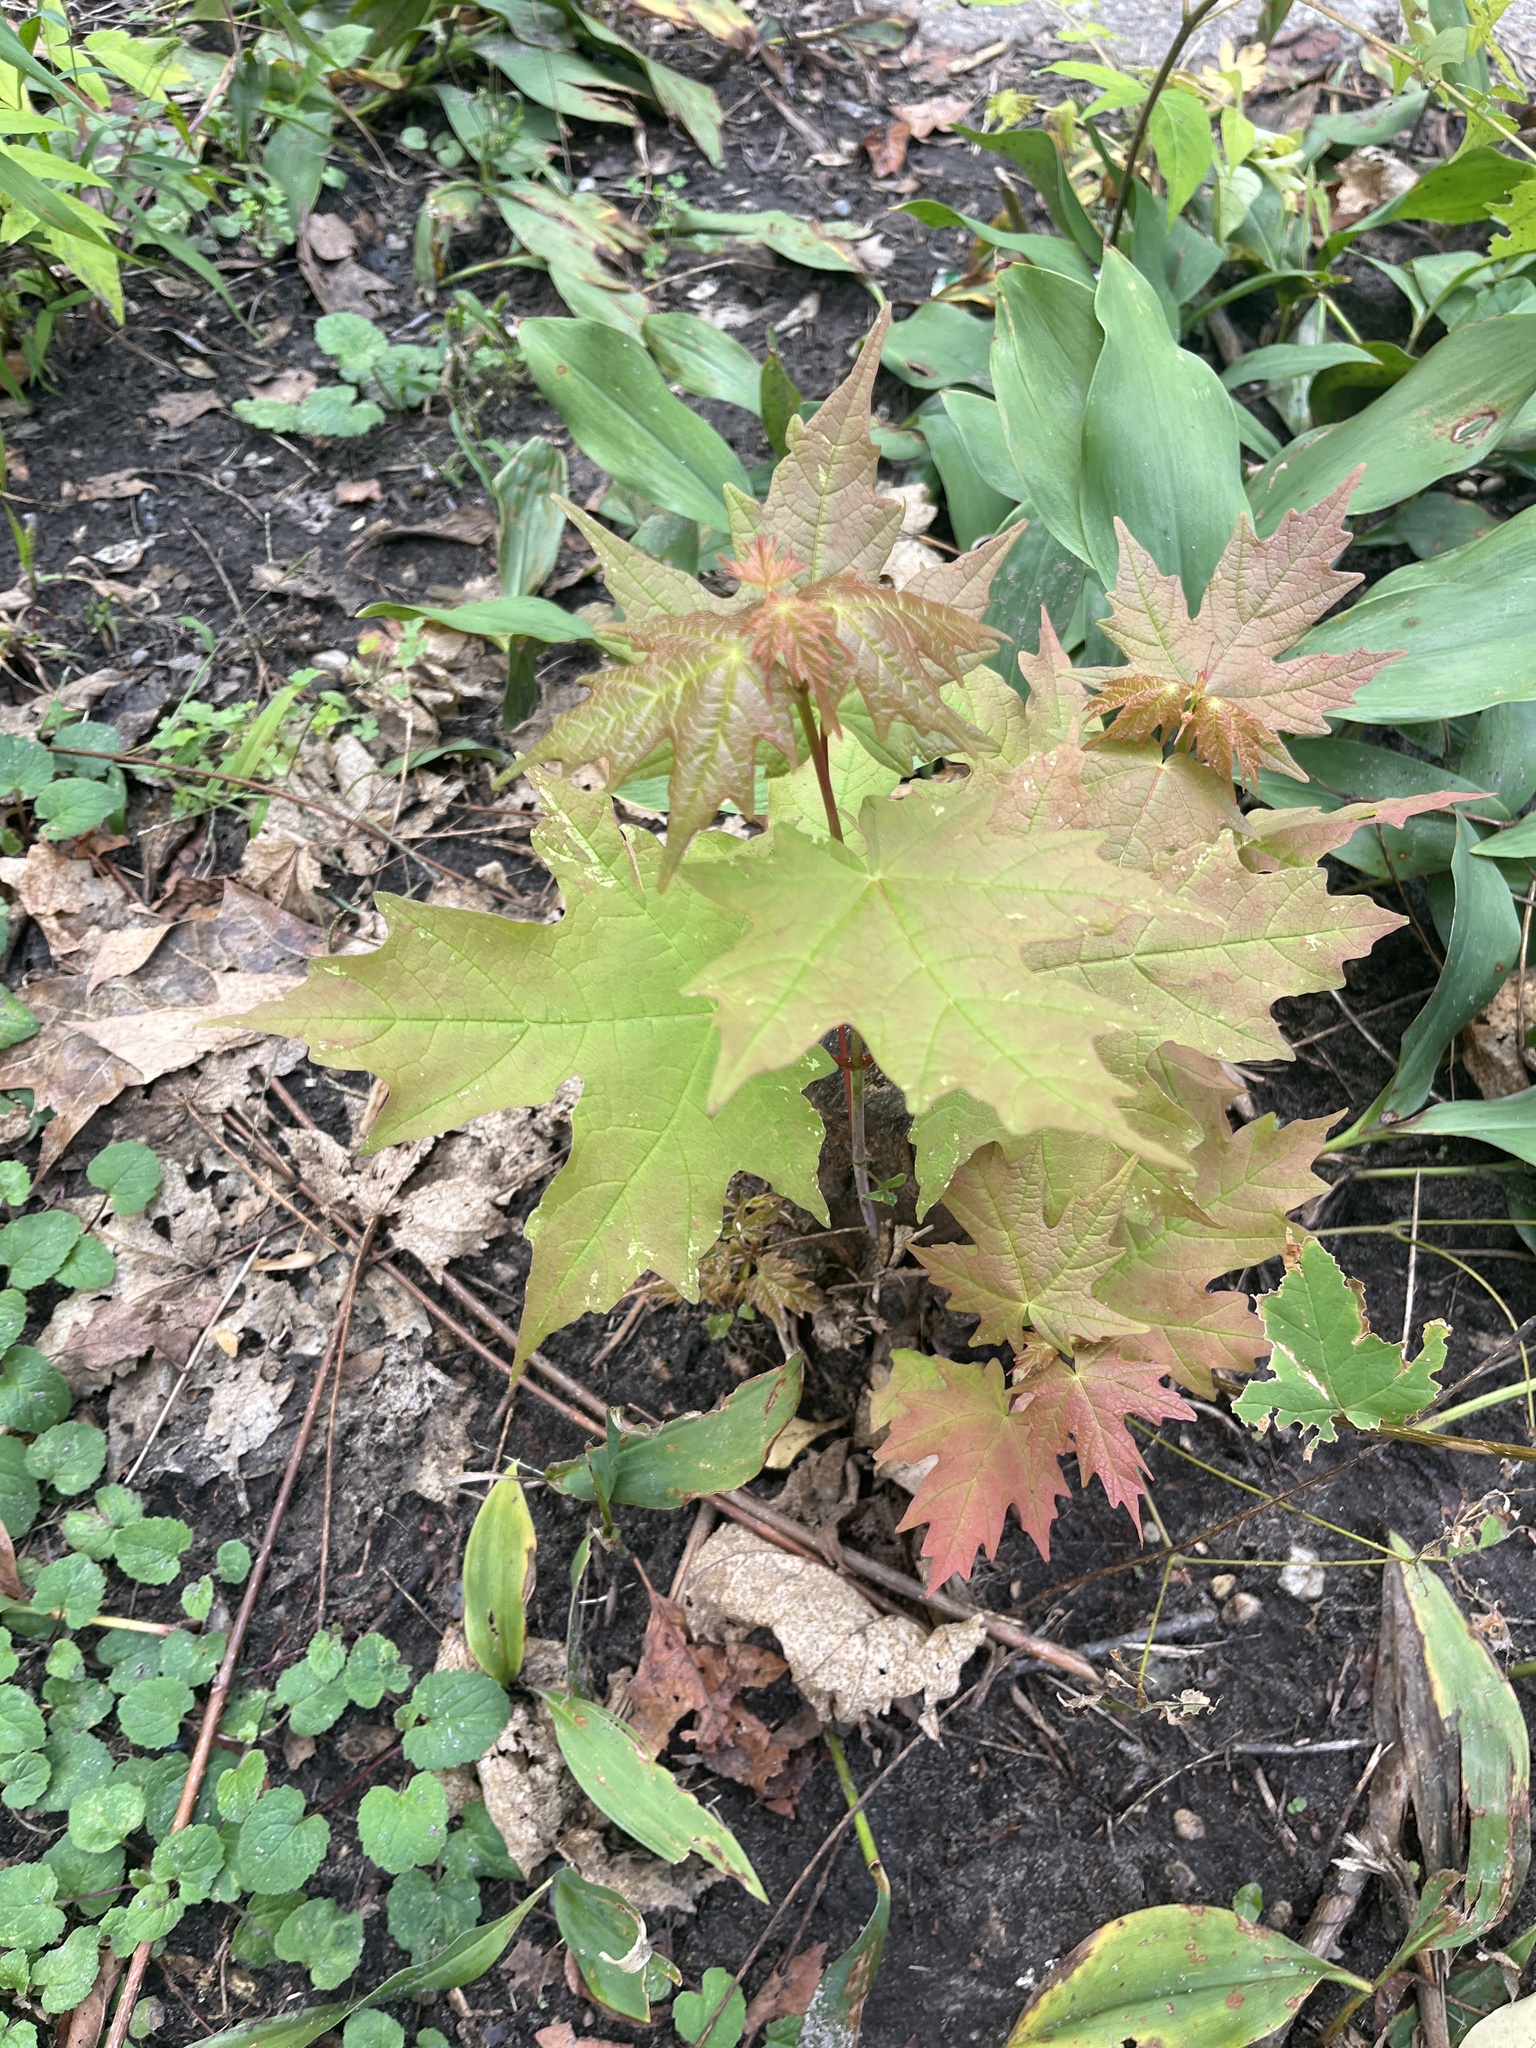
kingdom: Plantae
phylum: Tracheophyta
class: Magnoliopsida
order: Sapindales
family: Sapindaceae
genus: Acer
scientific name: Acer saccharum
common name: Sugar maple
